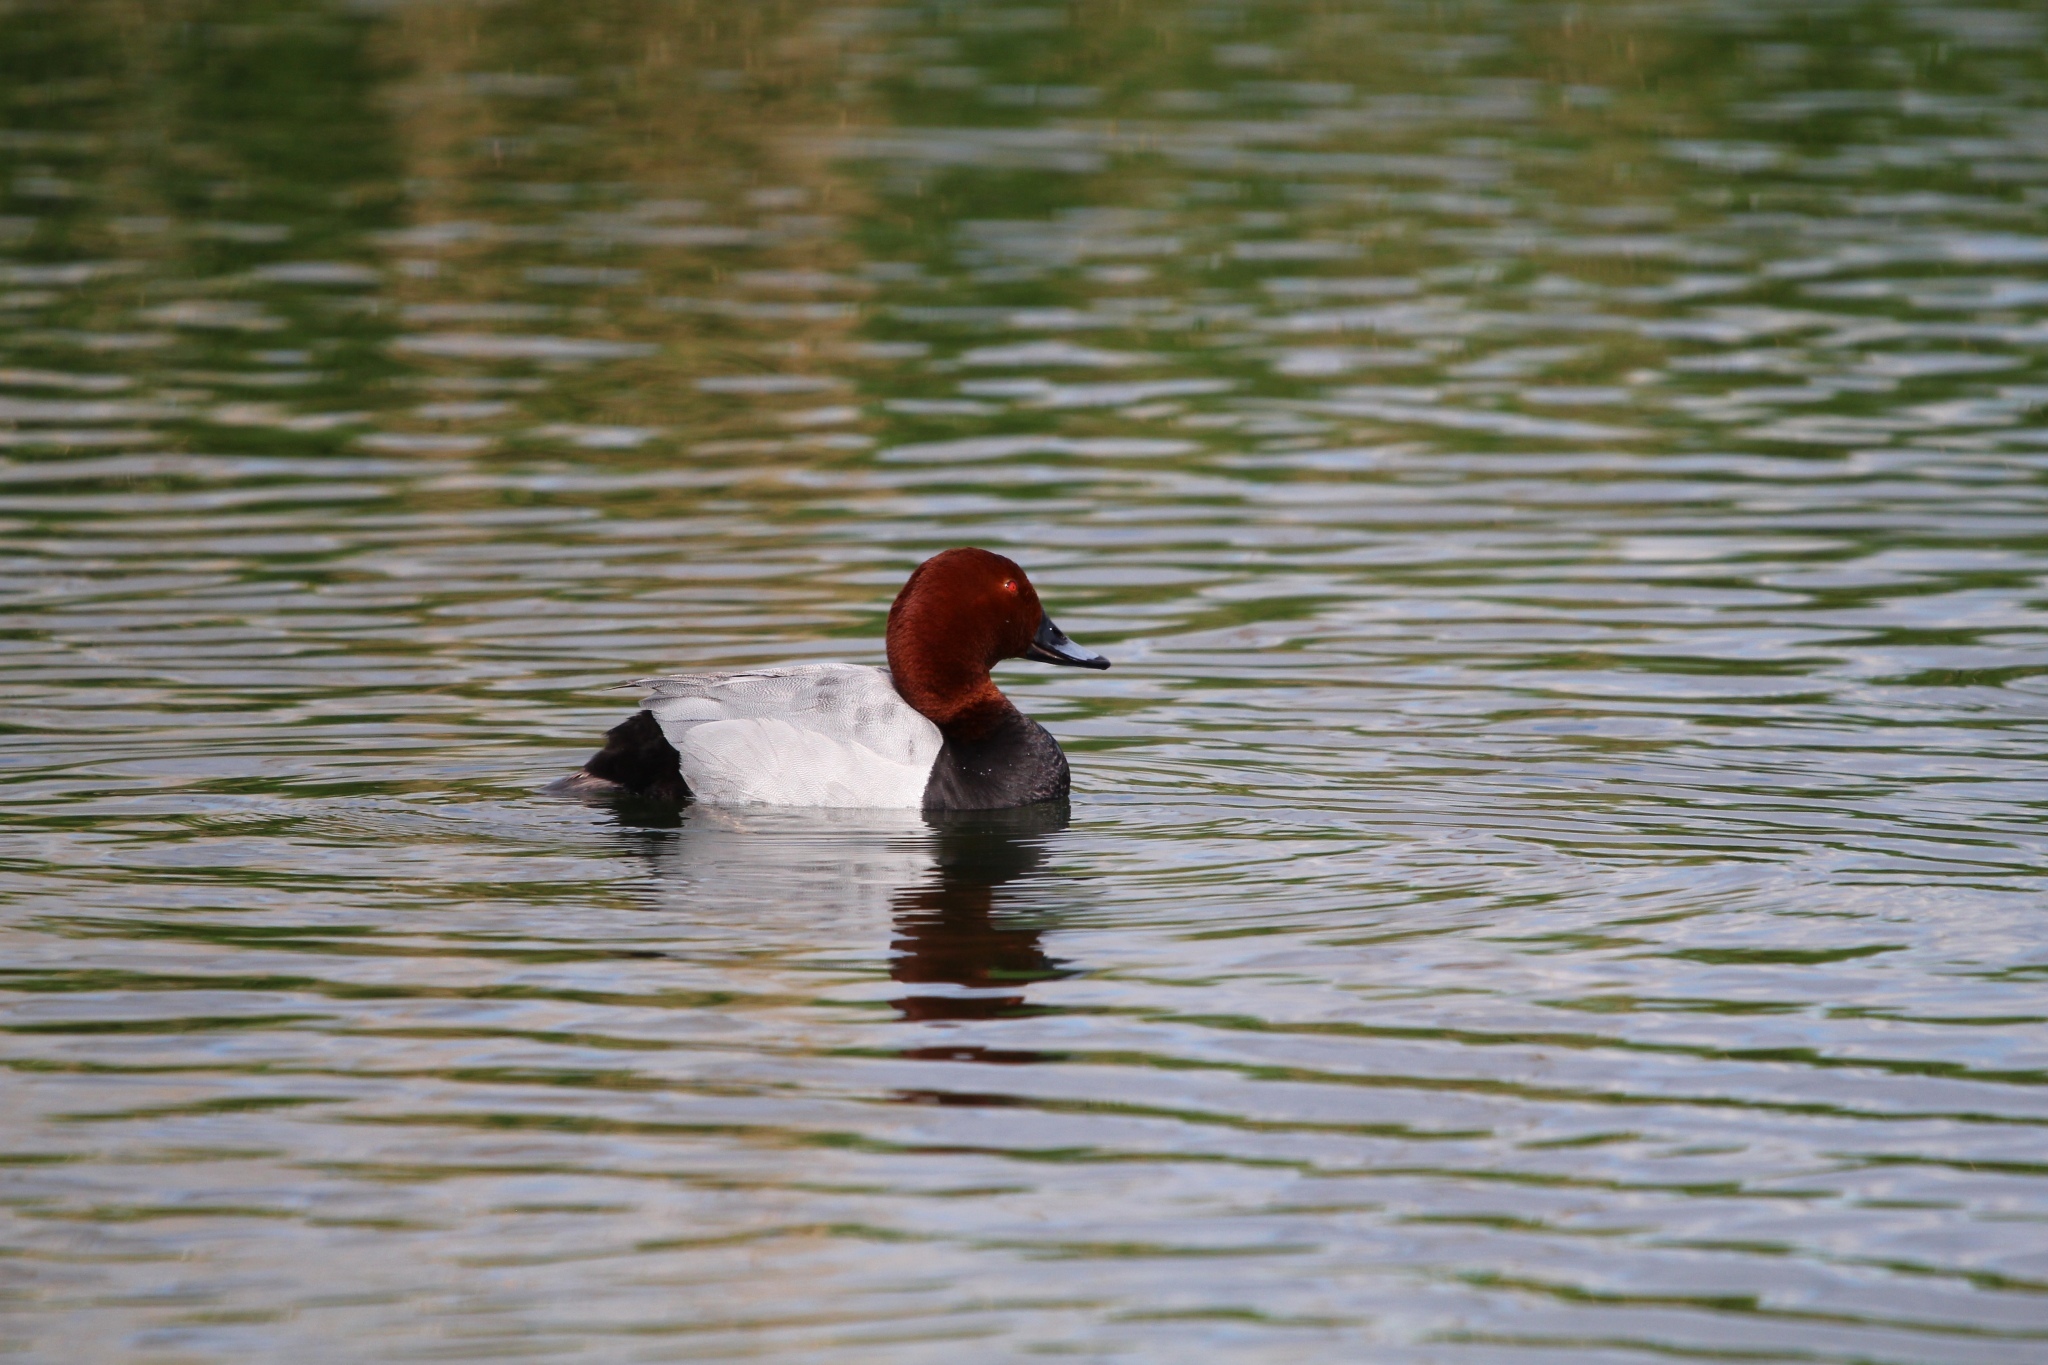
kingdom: Animalia
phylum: Chordata
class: Aves
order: Anseriformes
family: Anatidae
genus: Aythya
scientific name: Aythya ferina
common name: Common pochard
